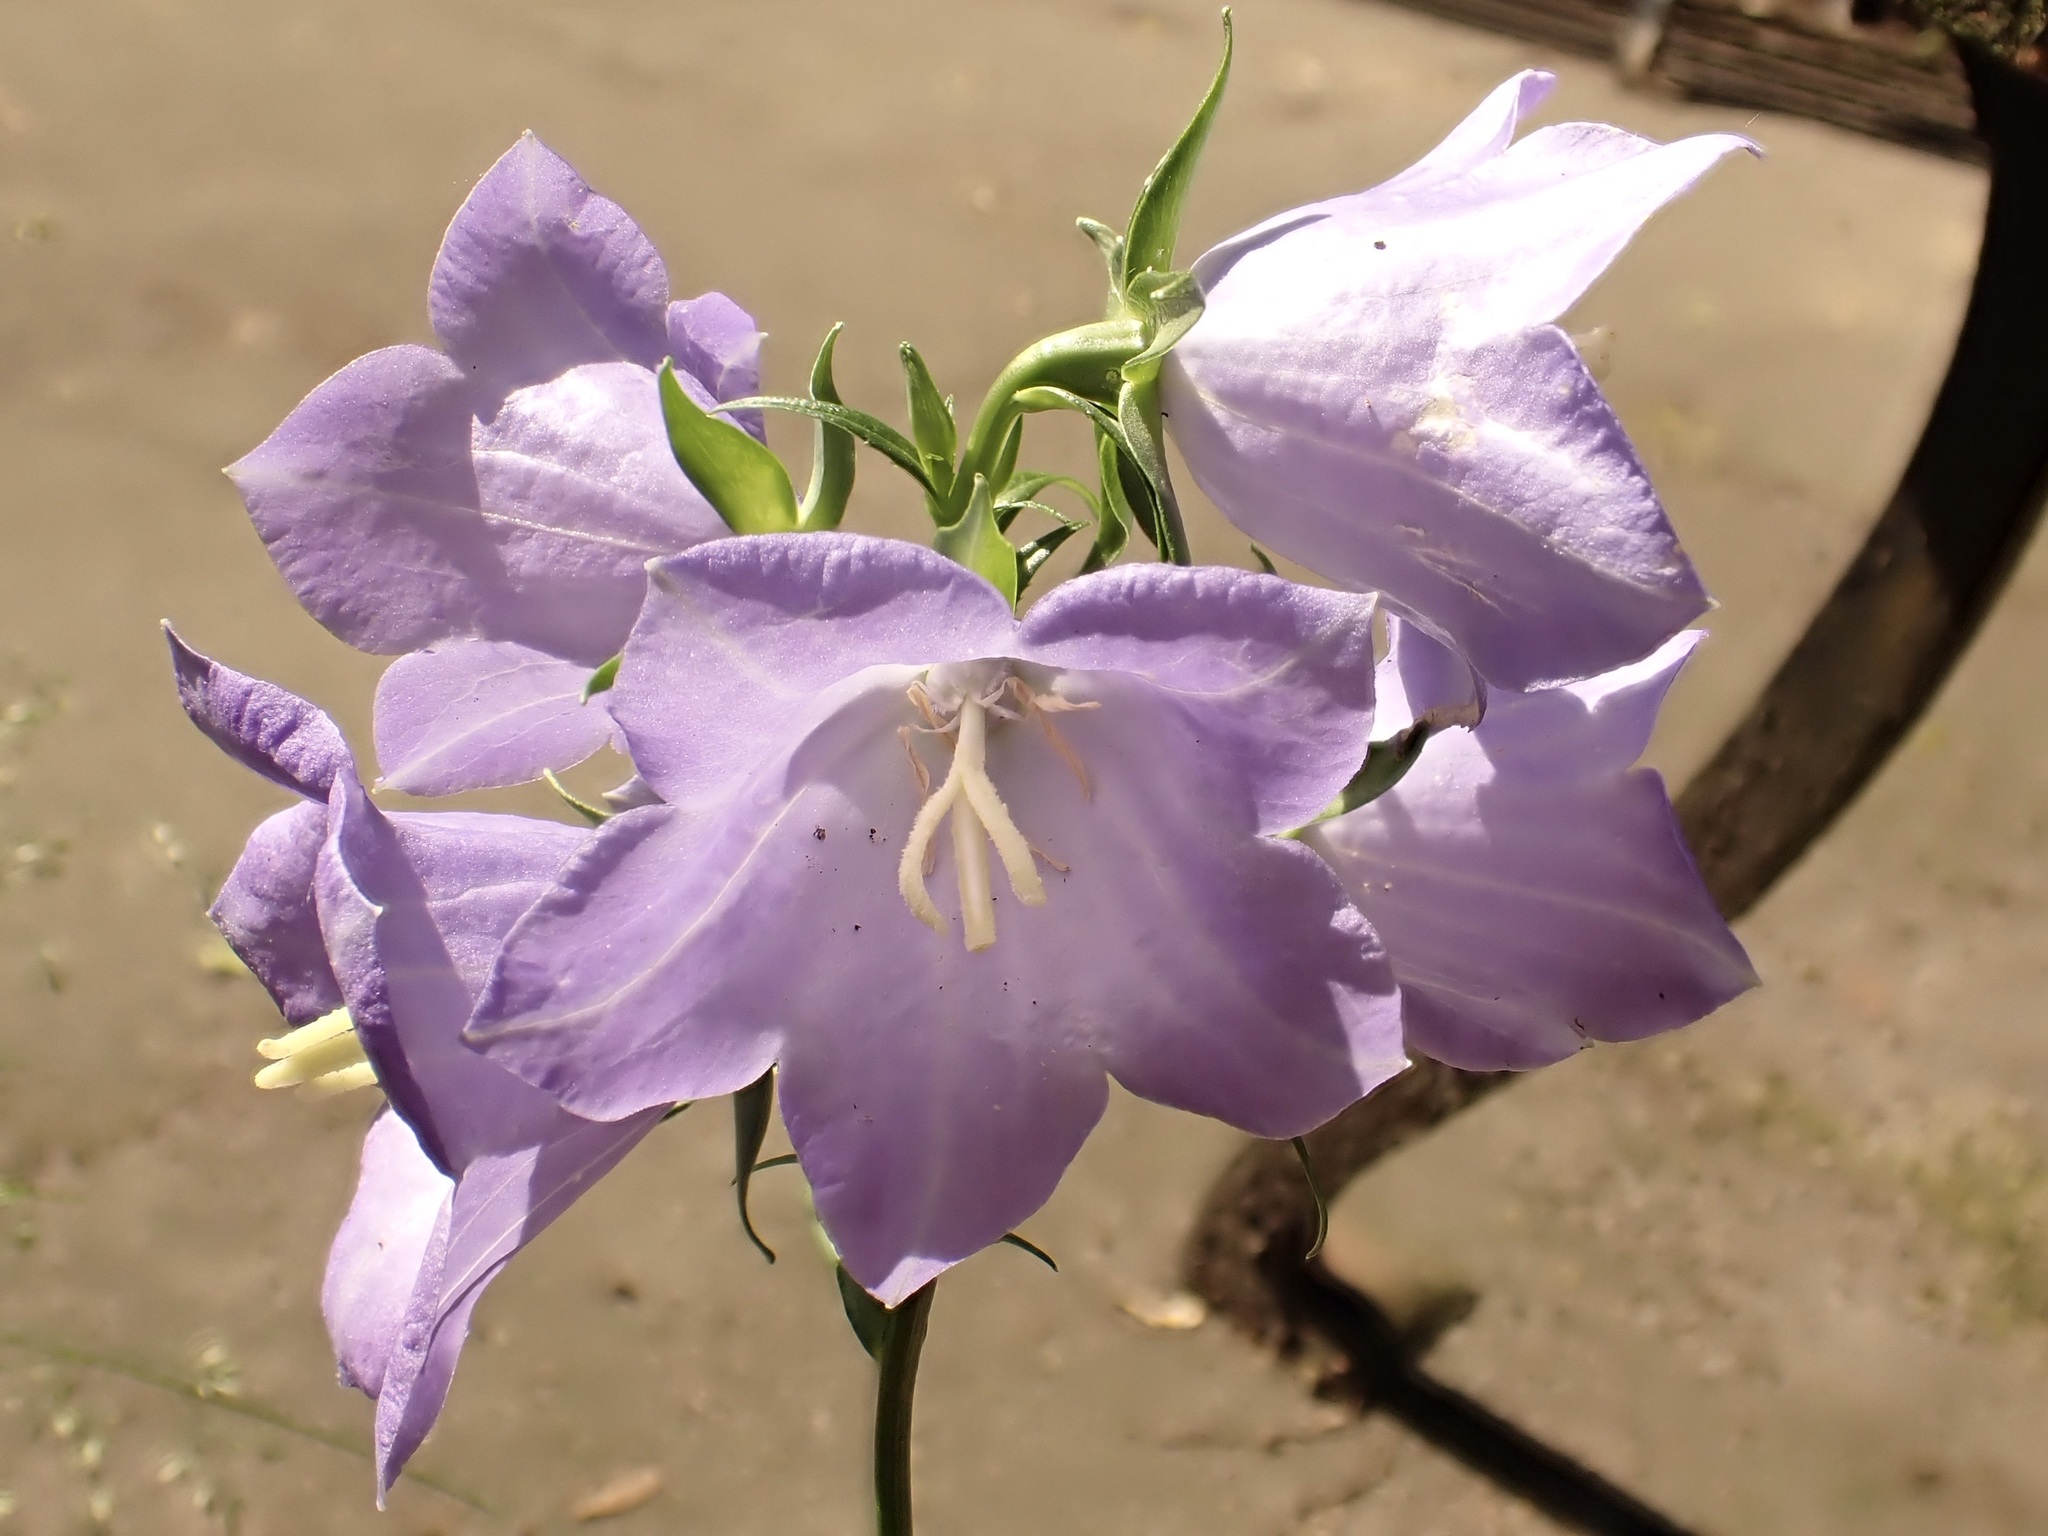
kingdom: Plantae
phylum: Tracheophyta
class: Magnoliopsida
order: Asterales
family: Campanulaceae
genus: Campanula
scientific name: Campanula persicifolia
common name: Peach-leaved bellflower
